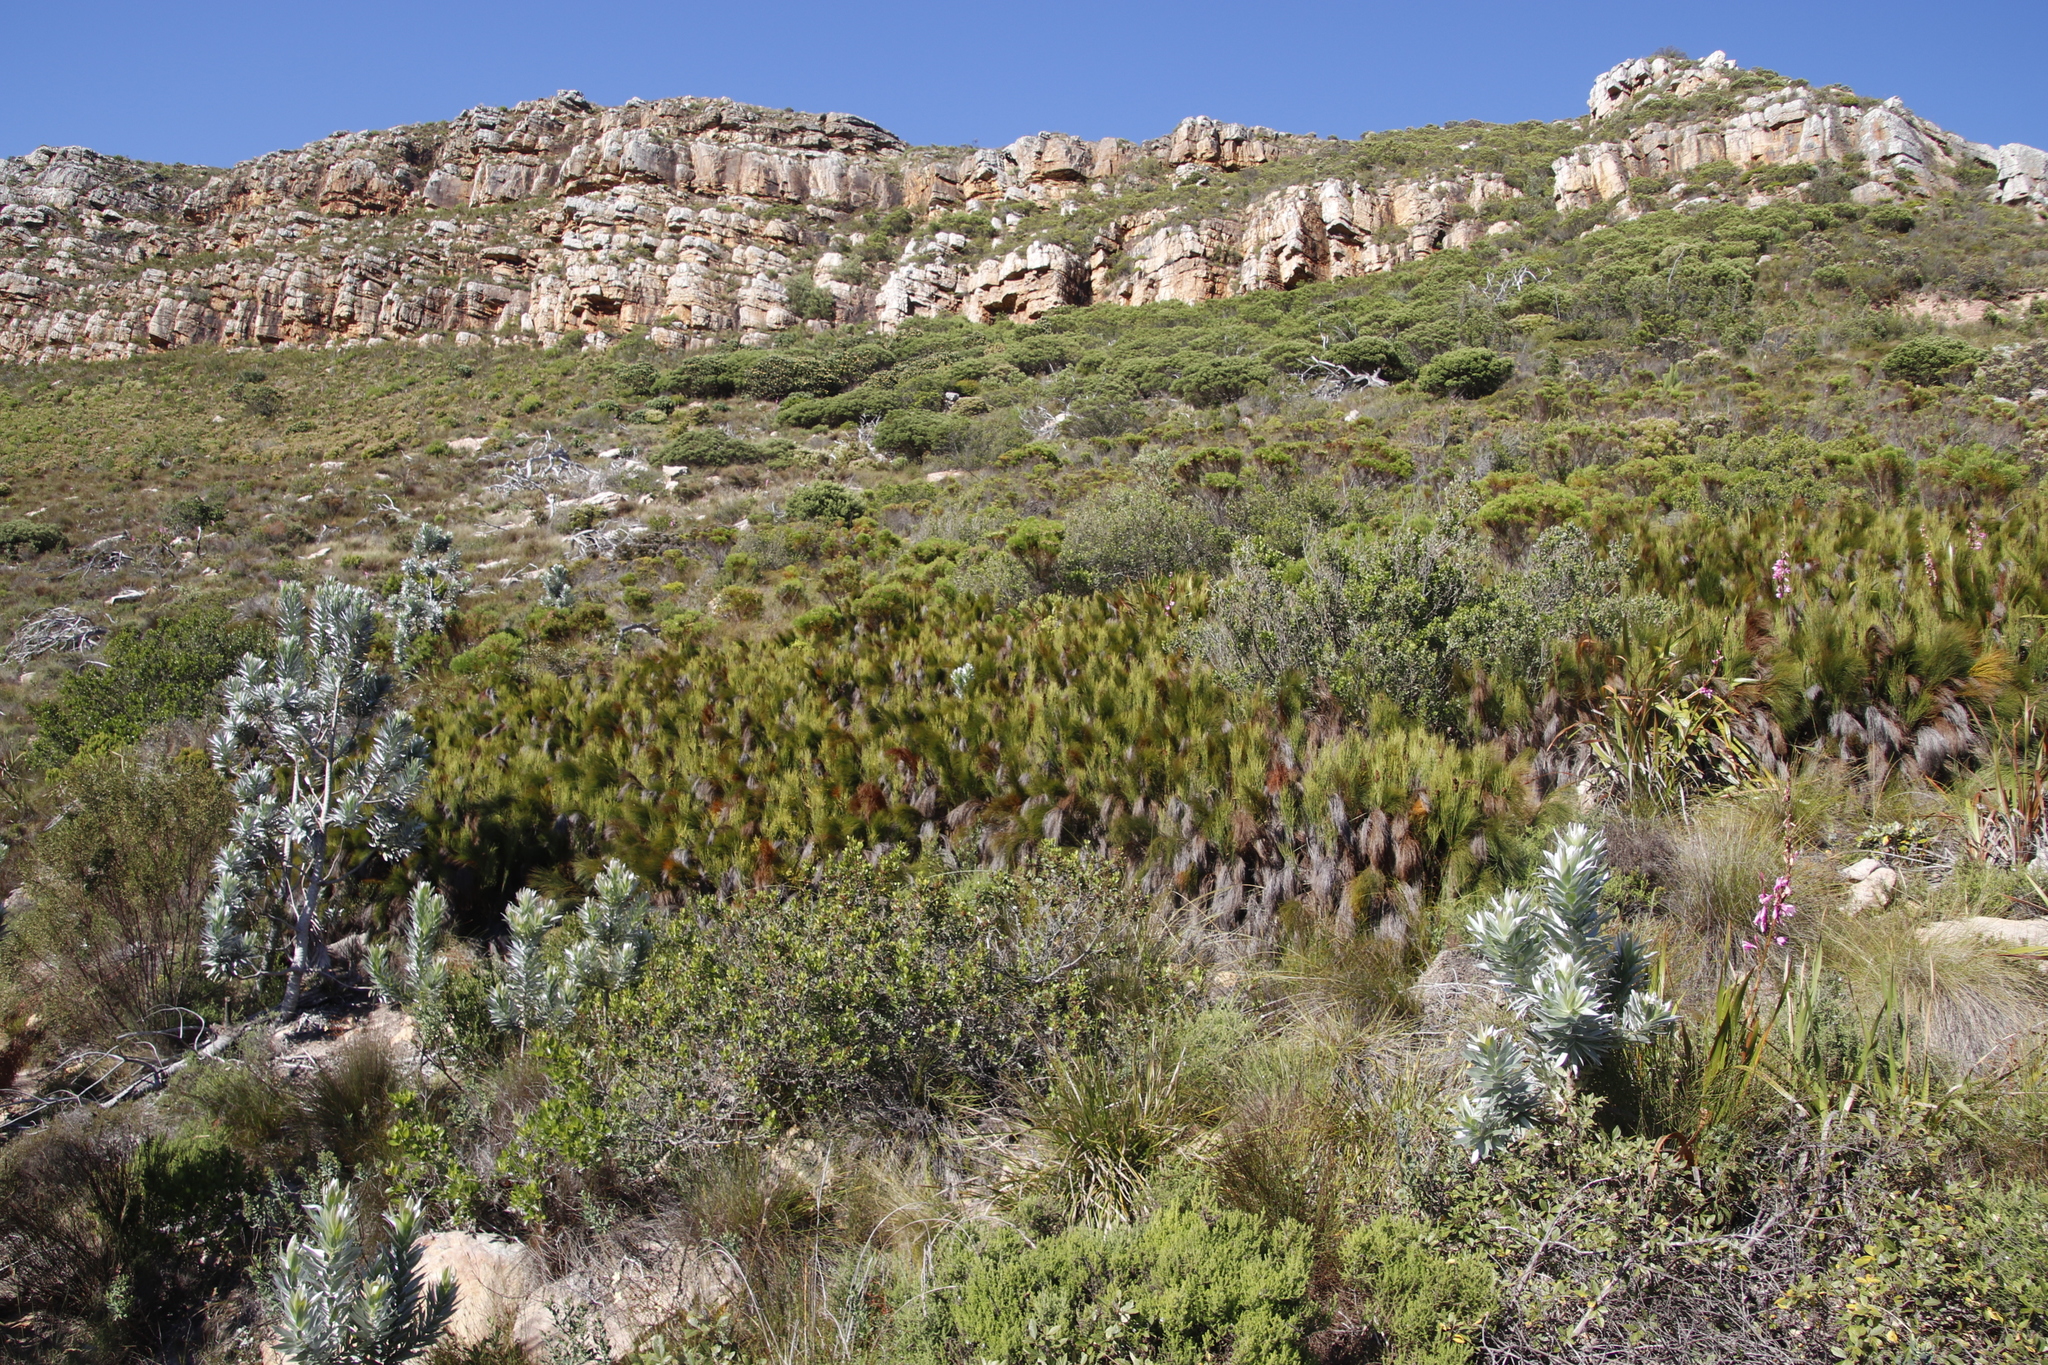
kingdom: Plantae
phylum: Tracheophyta
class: Liliopsida
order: Poales
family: Restionaceae
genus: Cannomois
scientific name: Cannomois virgata
